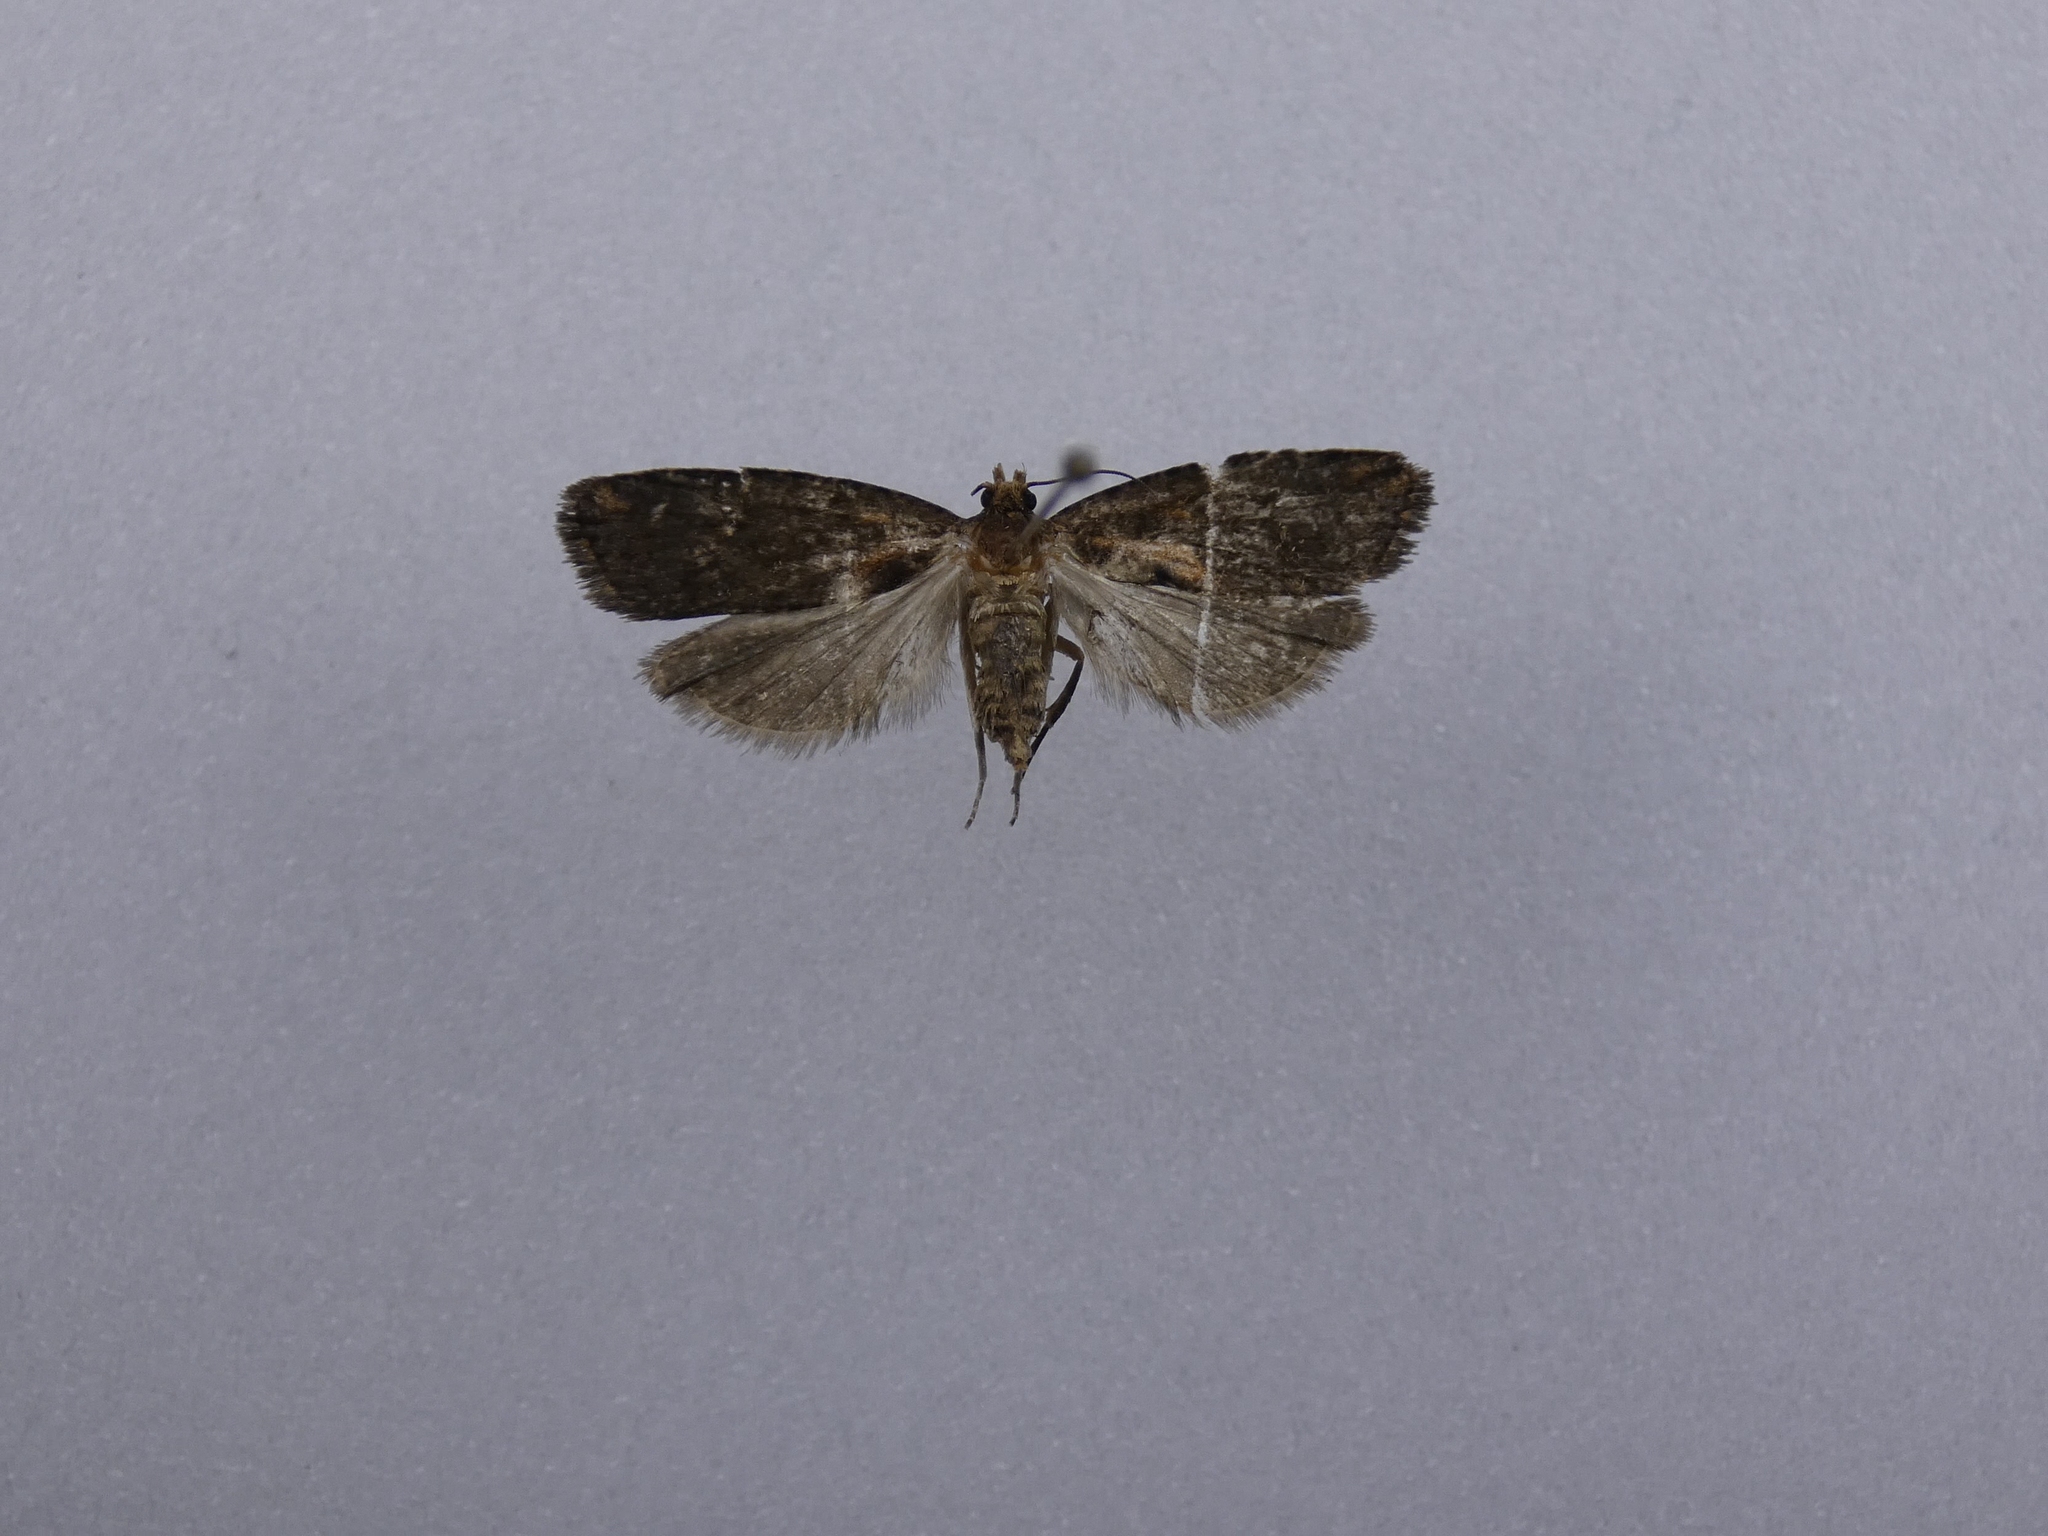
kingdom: Animalia
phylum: Arthropoda
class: Insecta
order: Lepidoptera
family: Tortricidae
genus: Cryptaspasma
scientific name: Cryptaspasma querula
